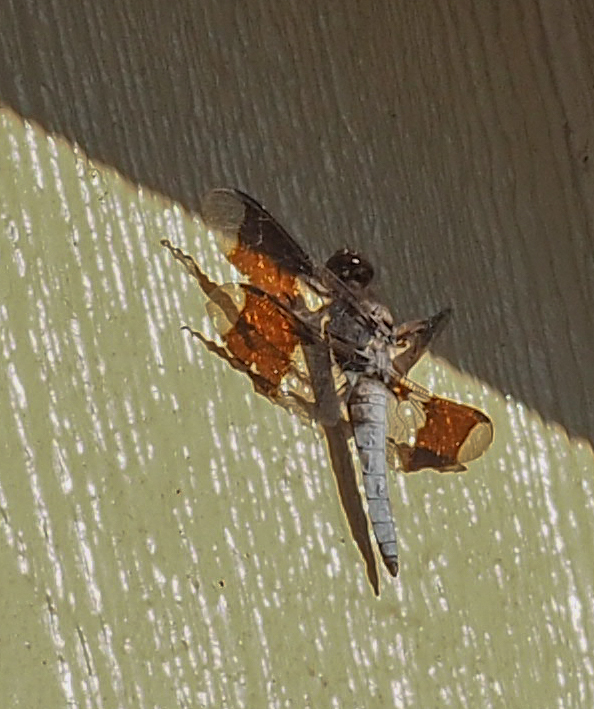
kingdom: Animalia
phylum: Arthropoda
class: Insecta
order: Odonata
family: Libellulidae
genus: Plathemis
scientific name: Plathemis lydia
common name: Common whitetail
